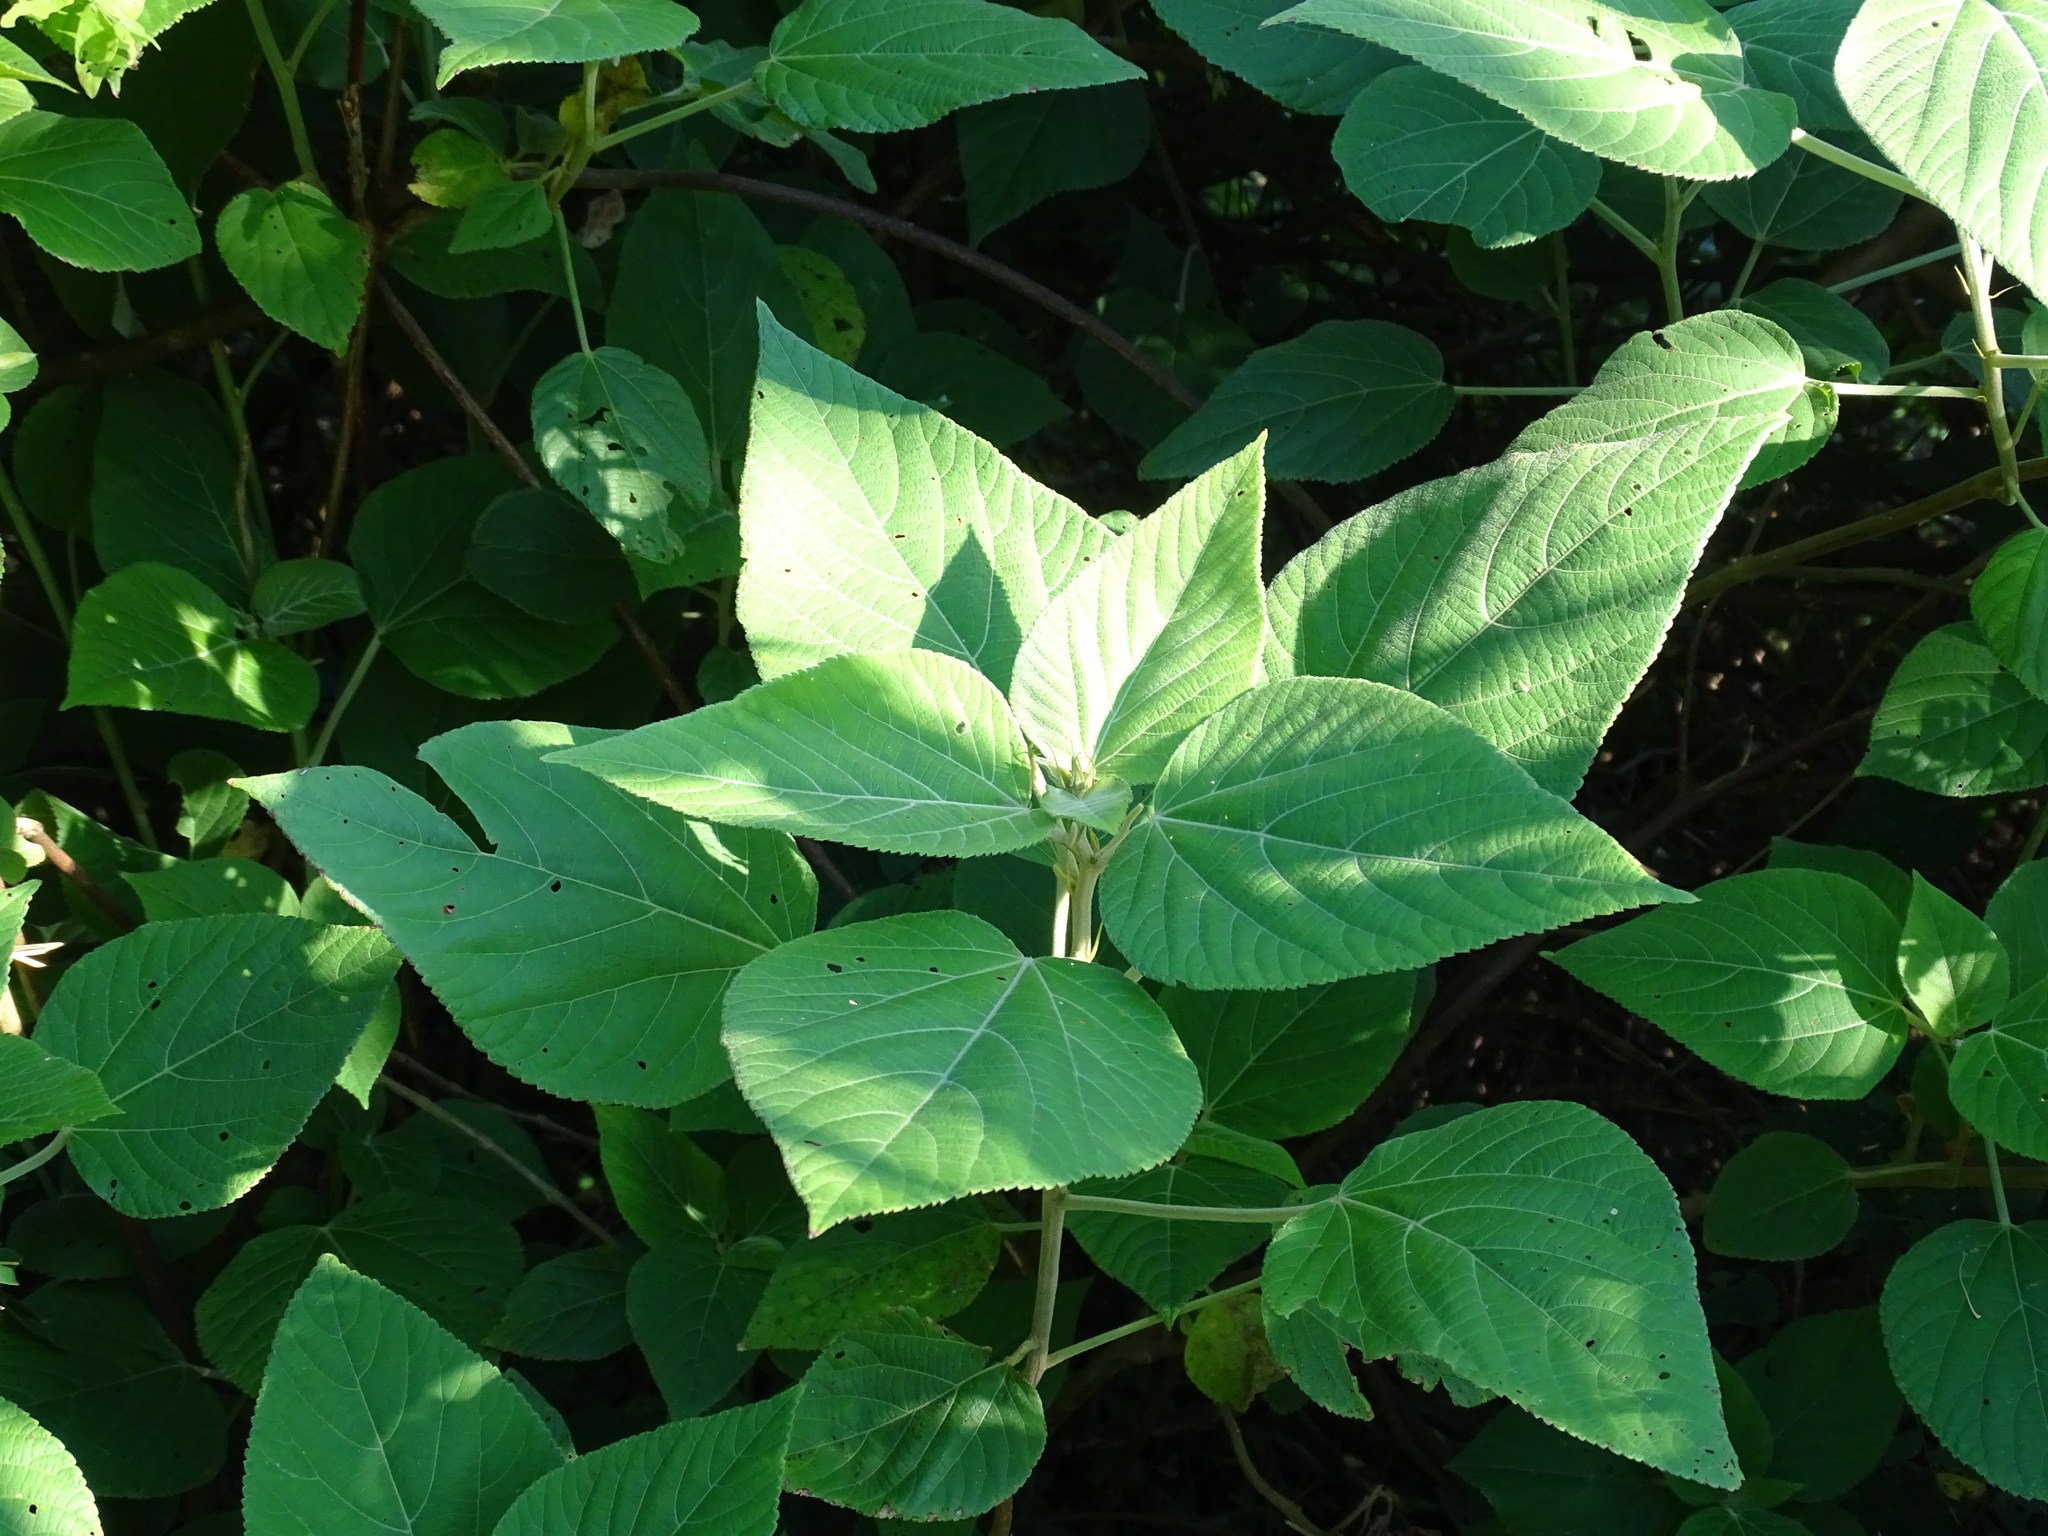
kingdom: Plantae
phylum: Tracheophyta
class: Magnoliopsida
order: Malpighiales
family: Euphorbiaceae
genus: Acalypha
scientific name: Acalypha macrostachyoides
